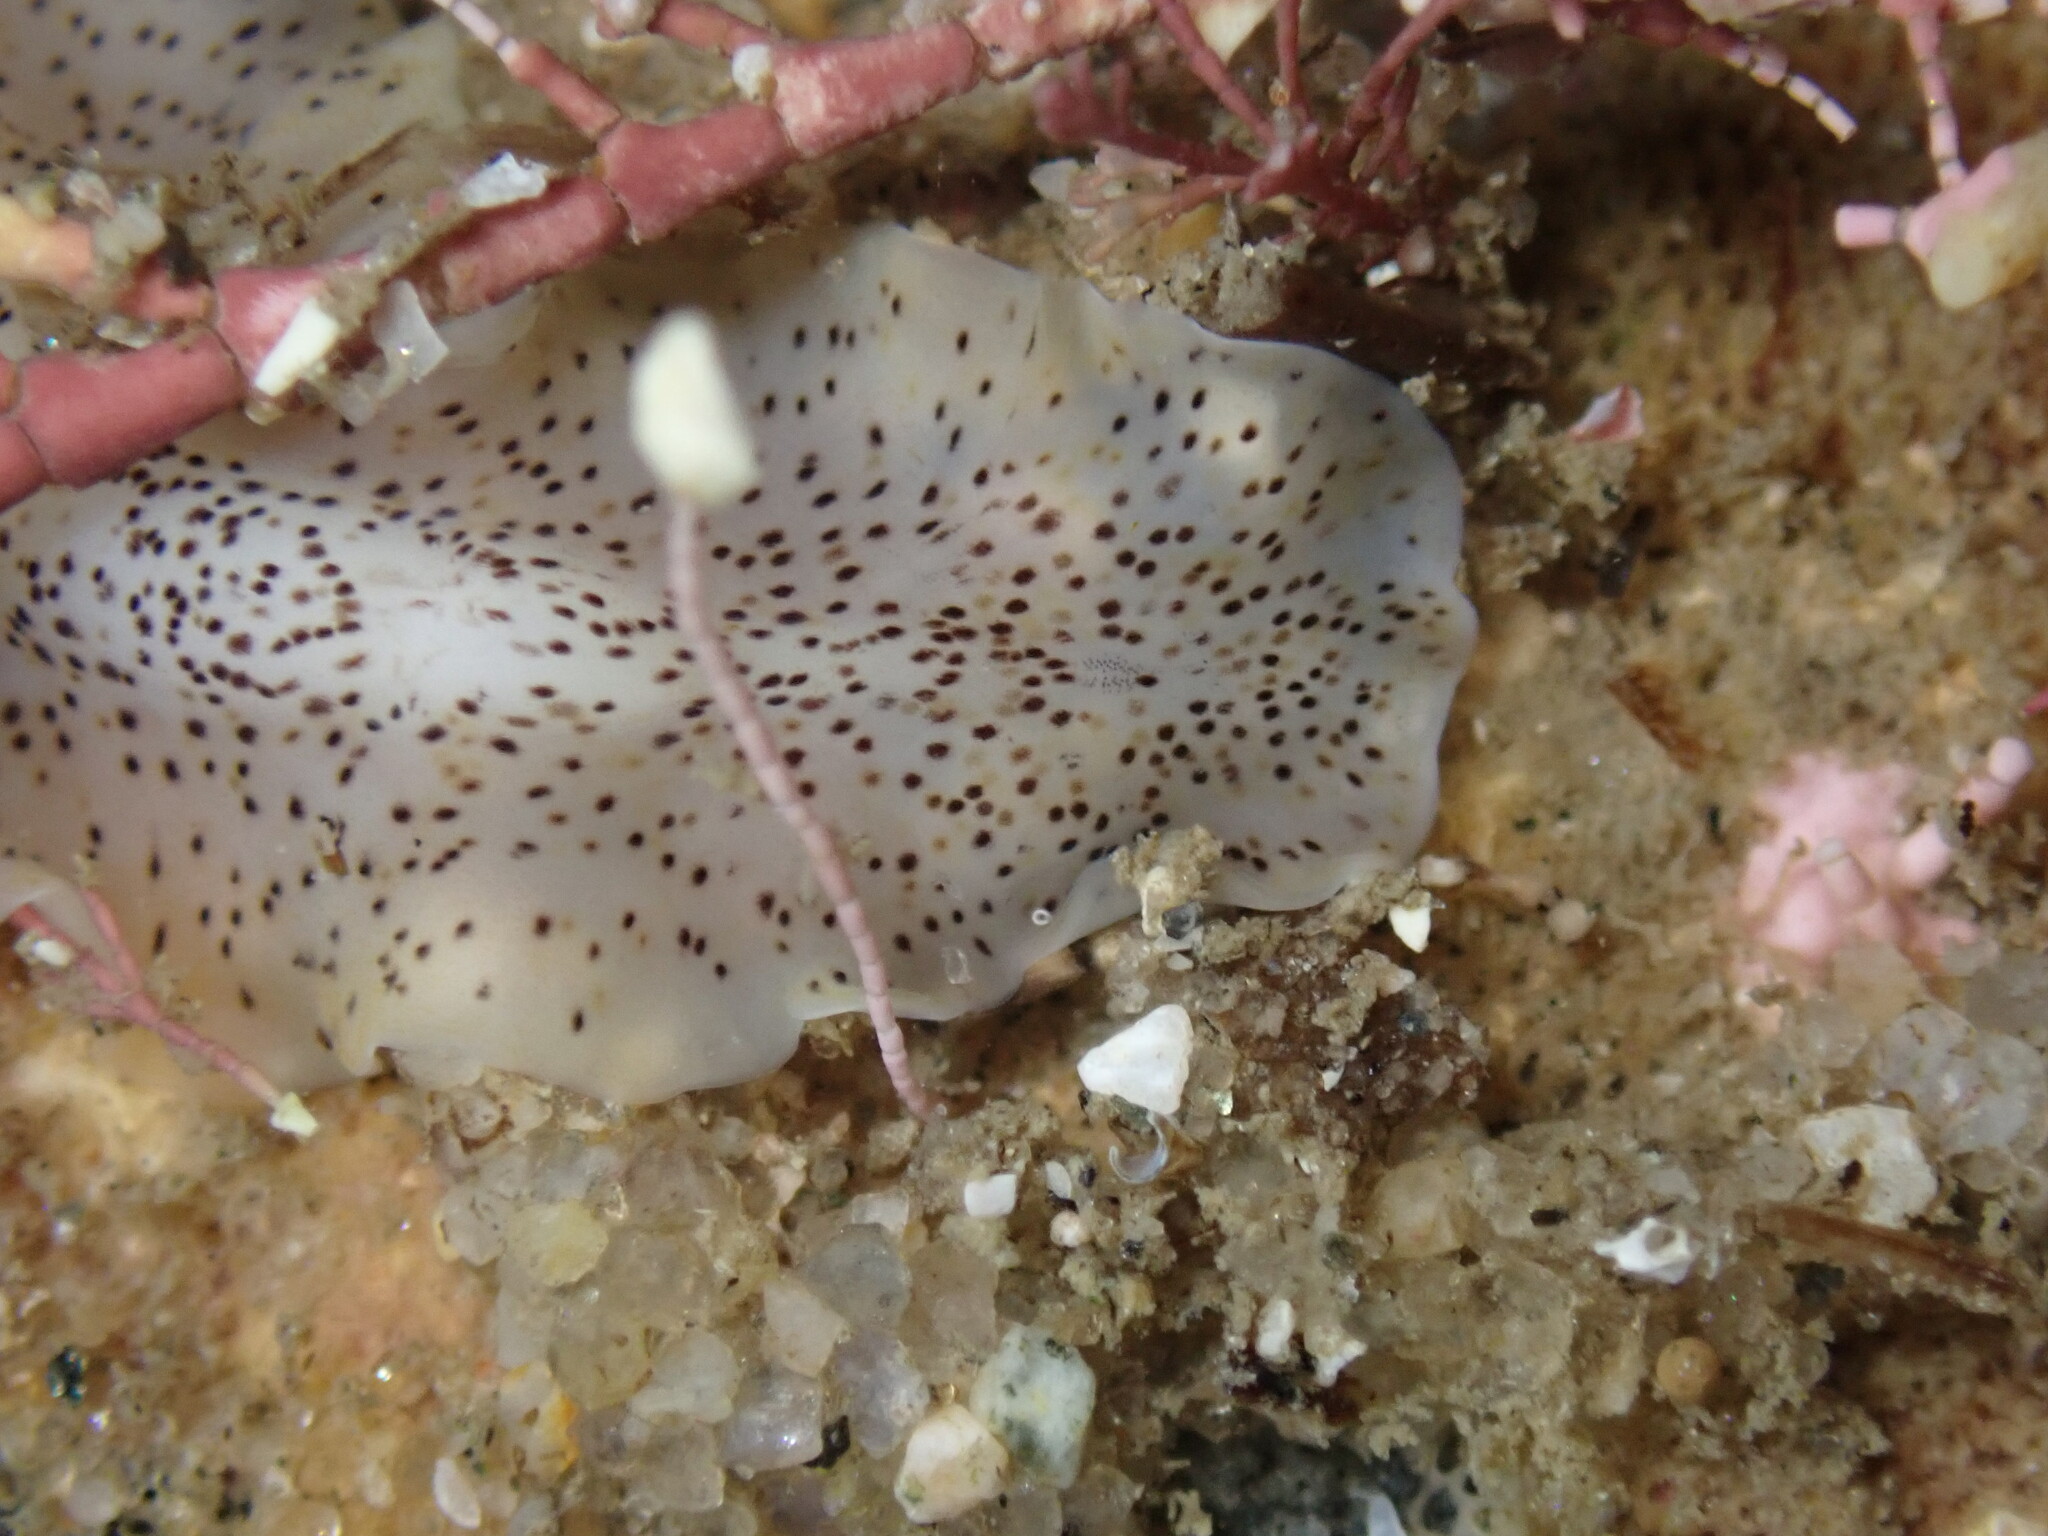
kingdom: Animalia
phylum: Platyhelminthes
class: Turbellaria
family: Prosthiostomidae
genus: Enchiridium
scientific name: Enchiridium punctatum
